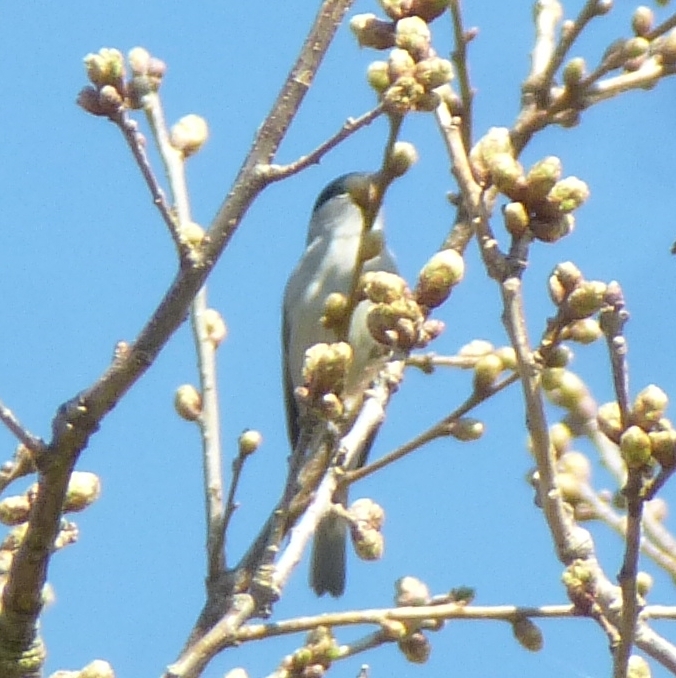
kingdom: Animalia
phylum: Chordata
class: Aves
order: Passeriformes
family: Sylviidae
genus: Sylvia
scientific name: Sylvia atricapilla
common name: Eurasian blackcap
